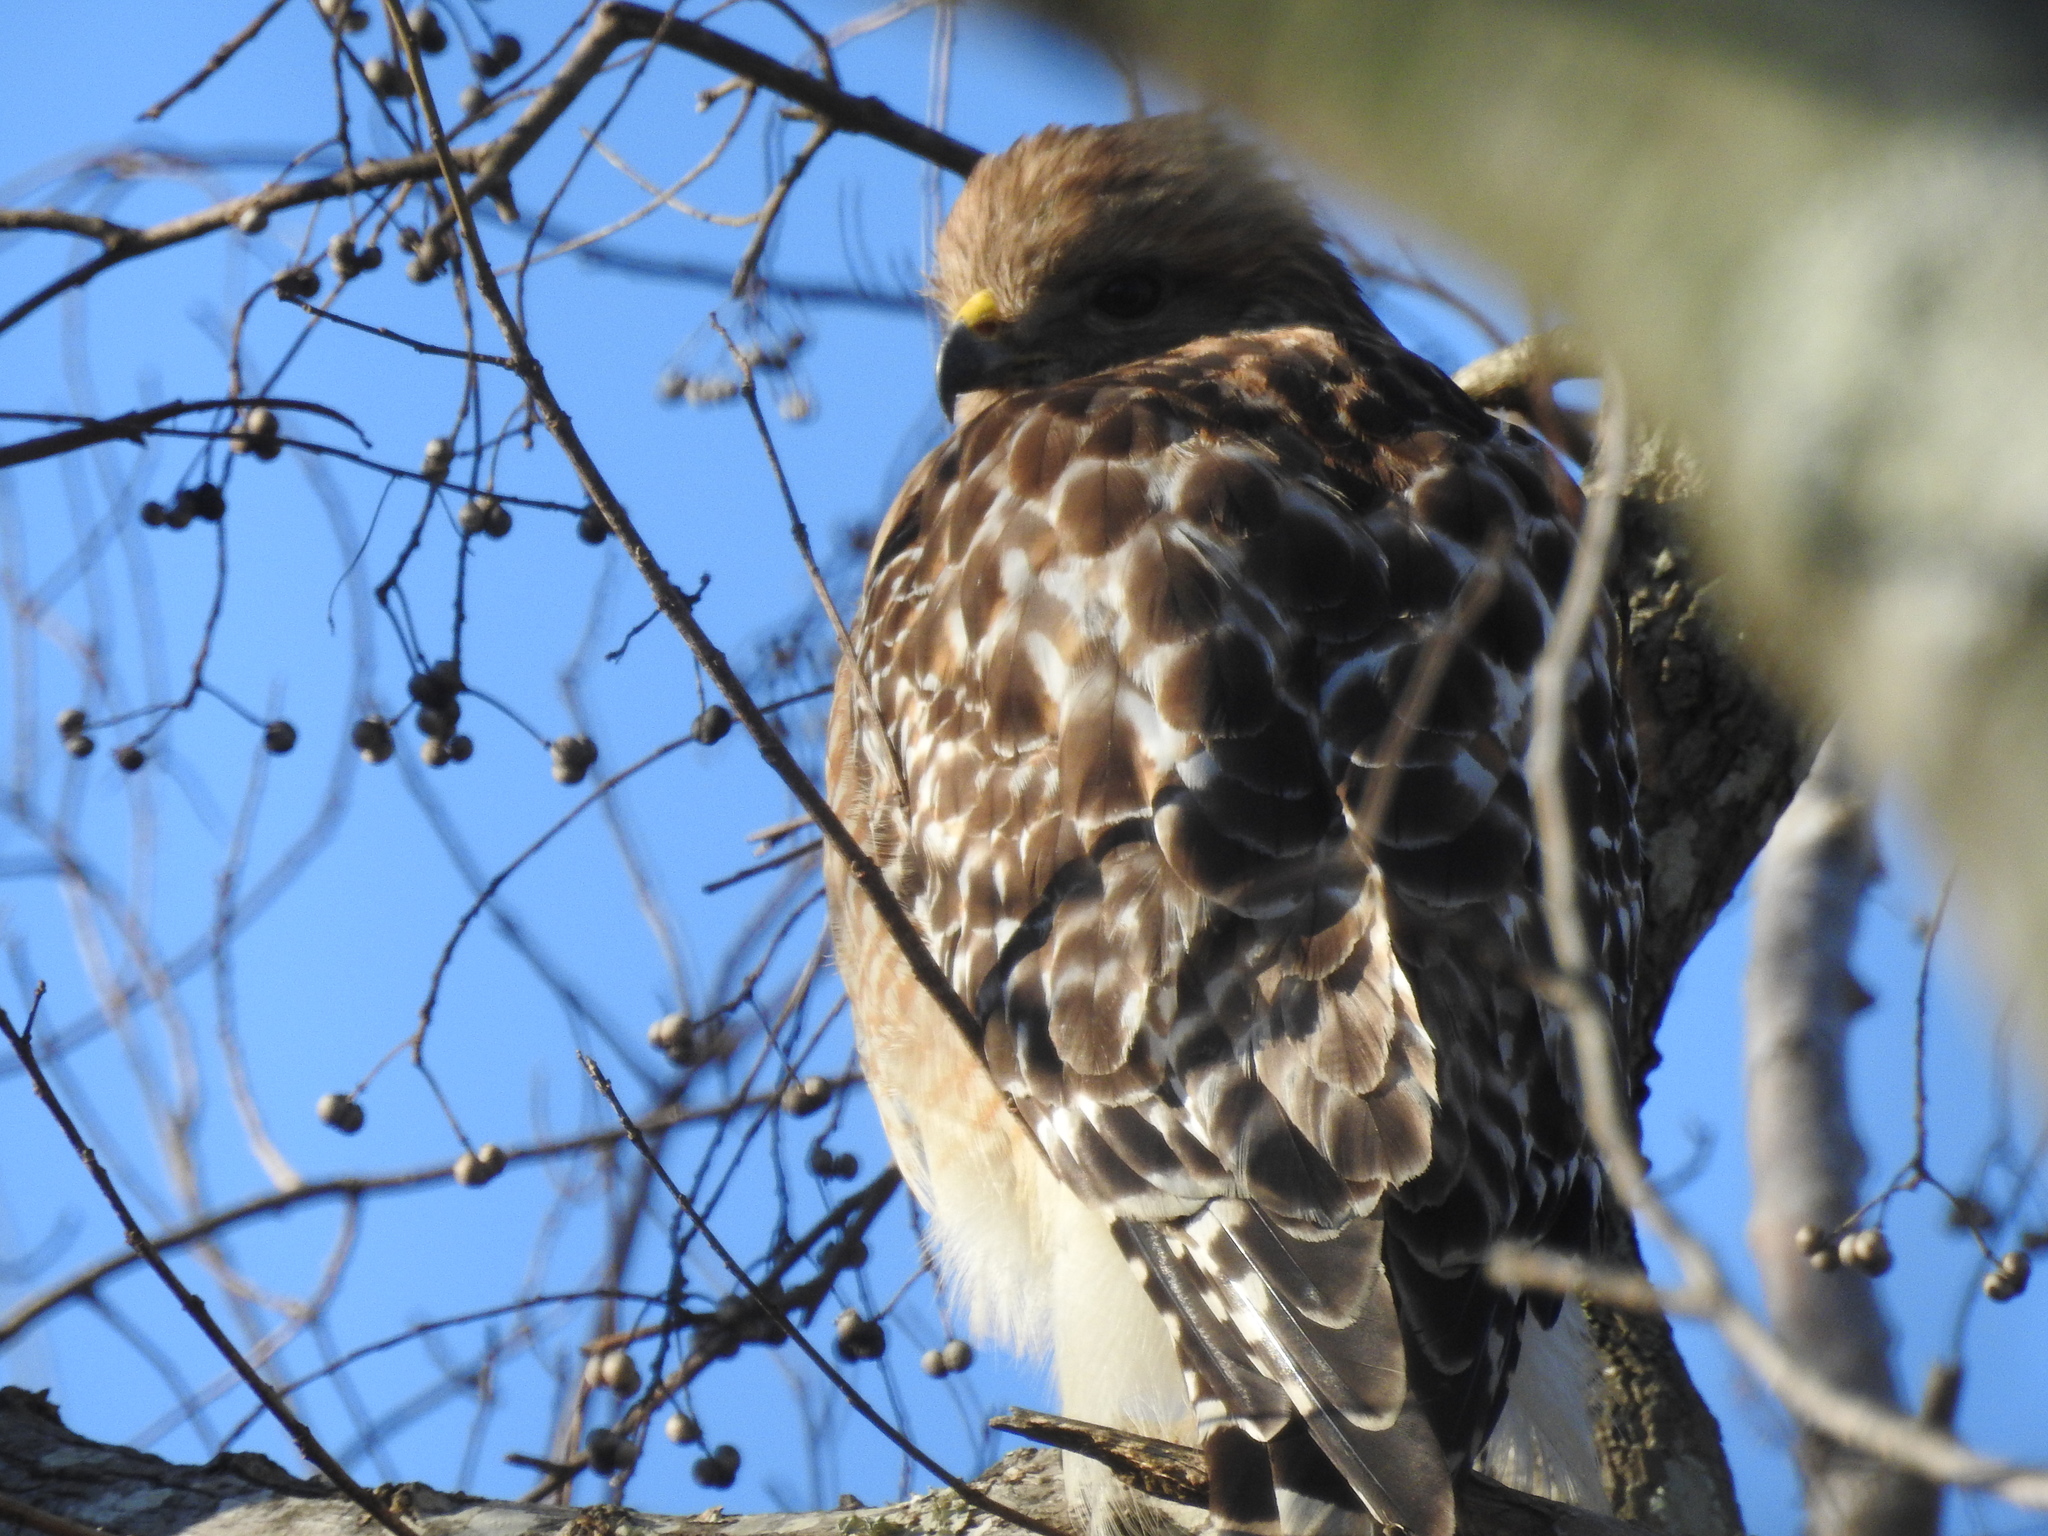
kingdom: Animalia
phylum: Chordata
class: Aves
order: Accipitriformes
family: Accipitridae
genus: Buteo
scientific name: Buteo lineatus
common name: Red-shouldered hawk
